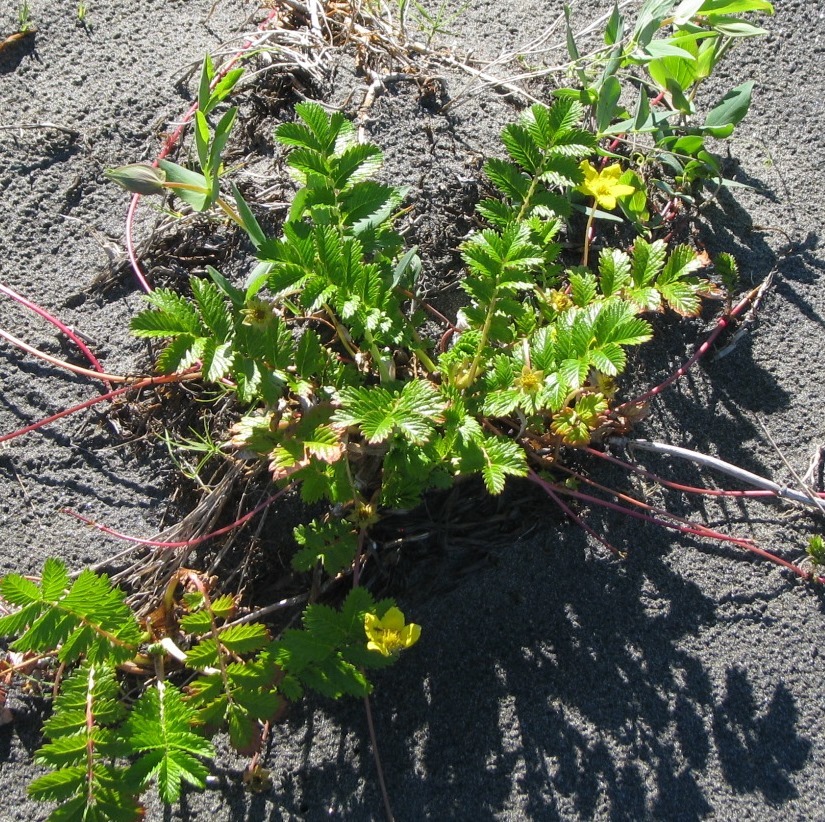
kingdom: Plantae
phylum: Tracheophyta
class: Magnoliopsida
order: Rosales
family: Rosaceae
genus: Argentina
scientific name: Argentina anserina
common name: Common silverweed
